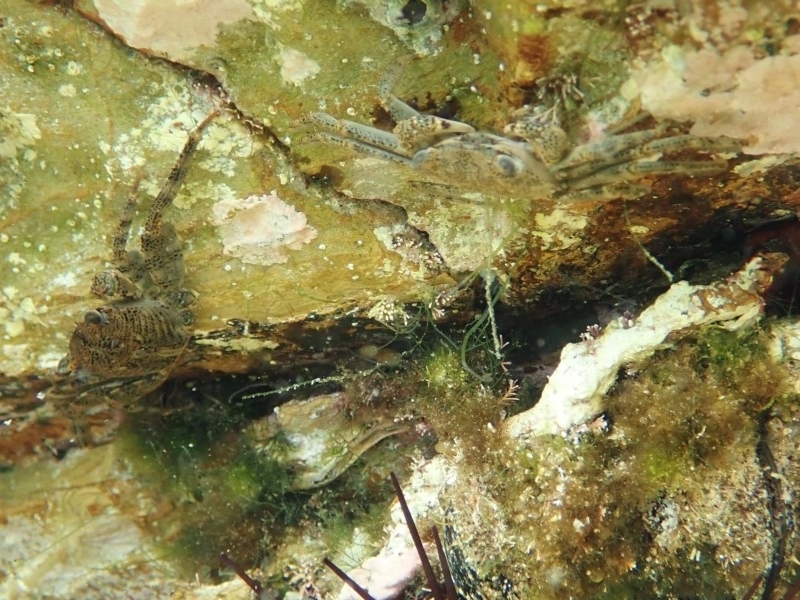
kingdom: Animalia
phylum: Arthropoda
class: Malacostraca
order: Decapoda
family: Grapsidae
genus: Leptograpsus
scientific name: Leptograpsus variegatus
